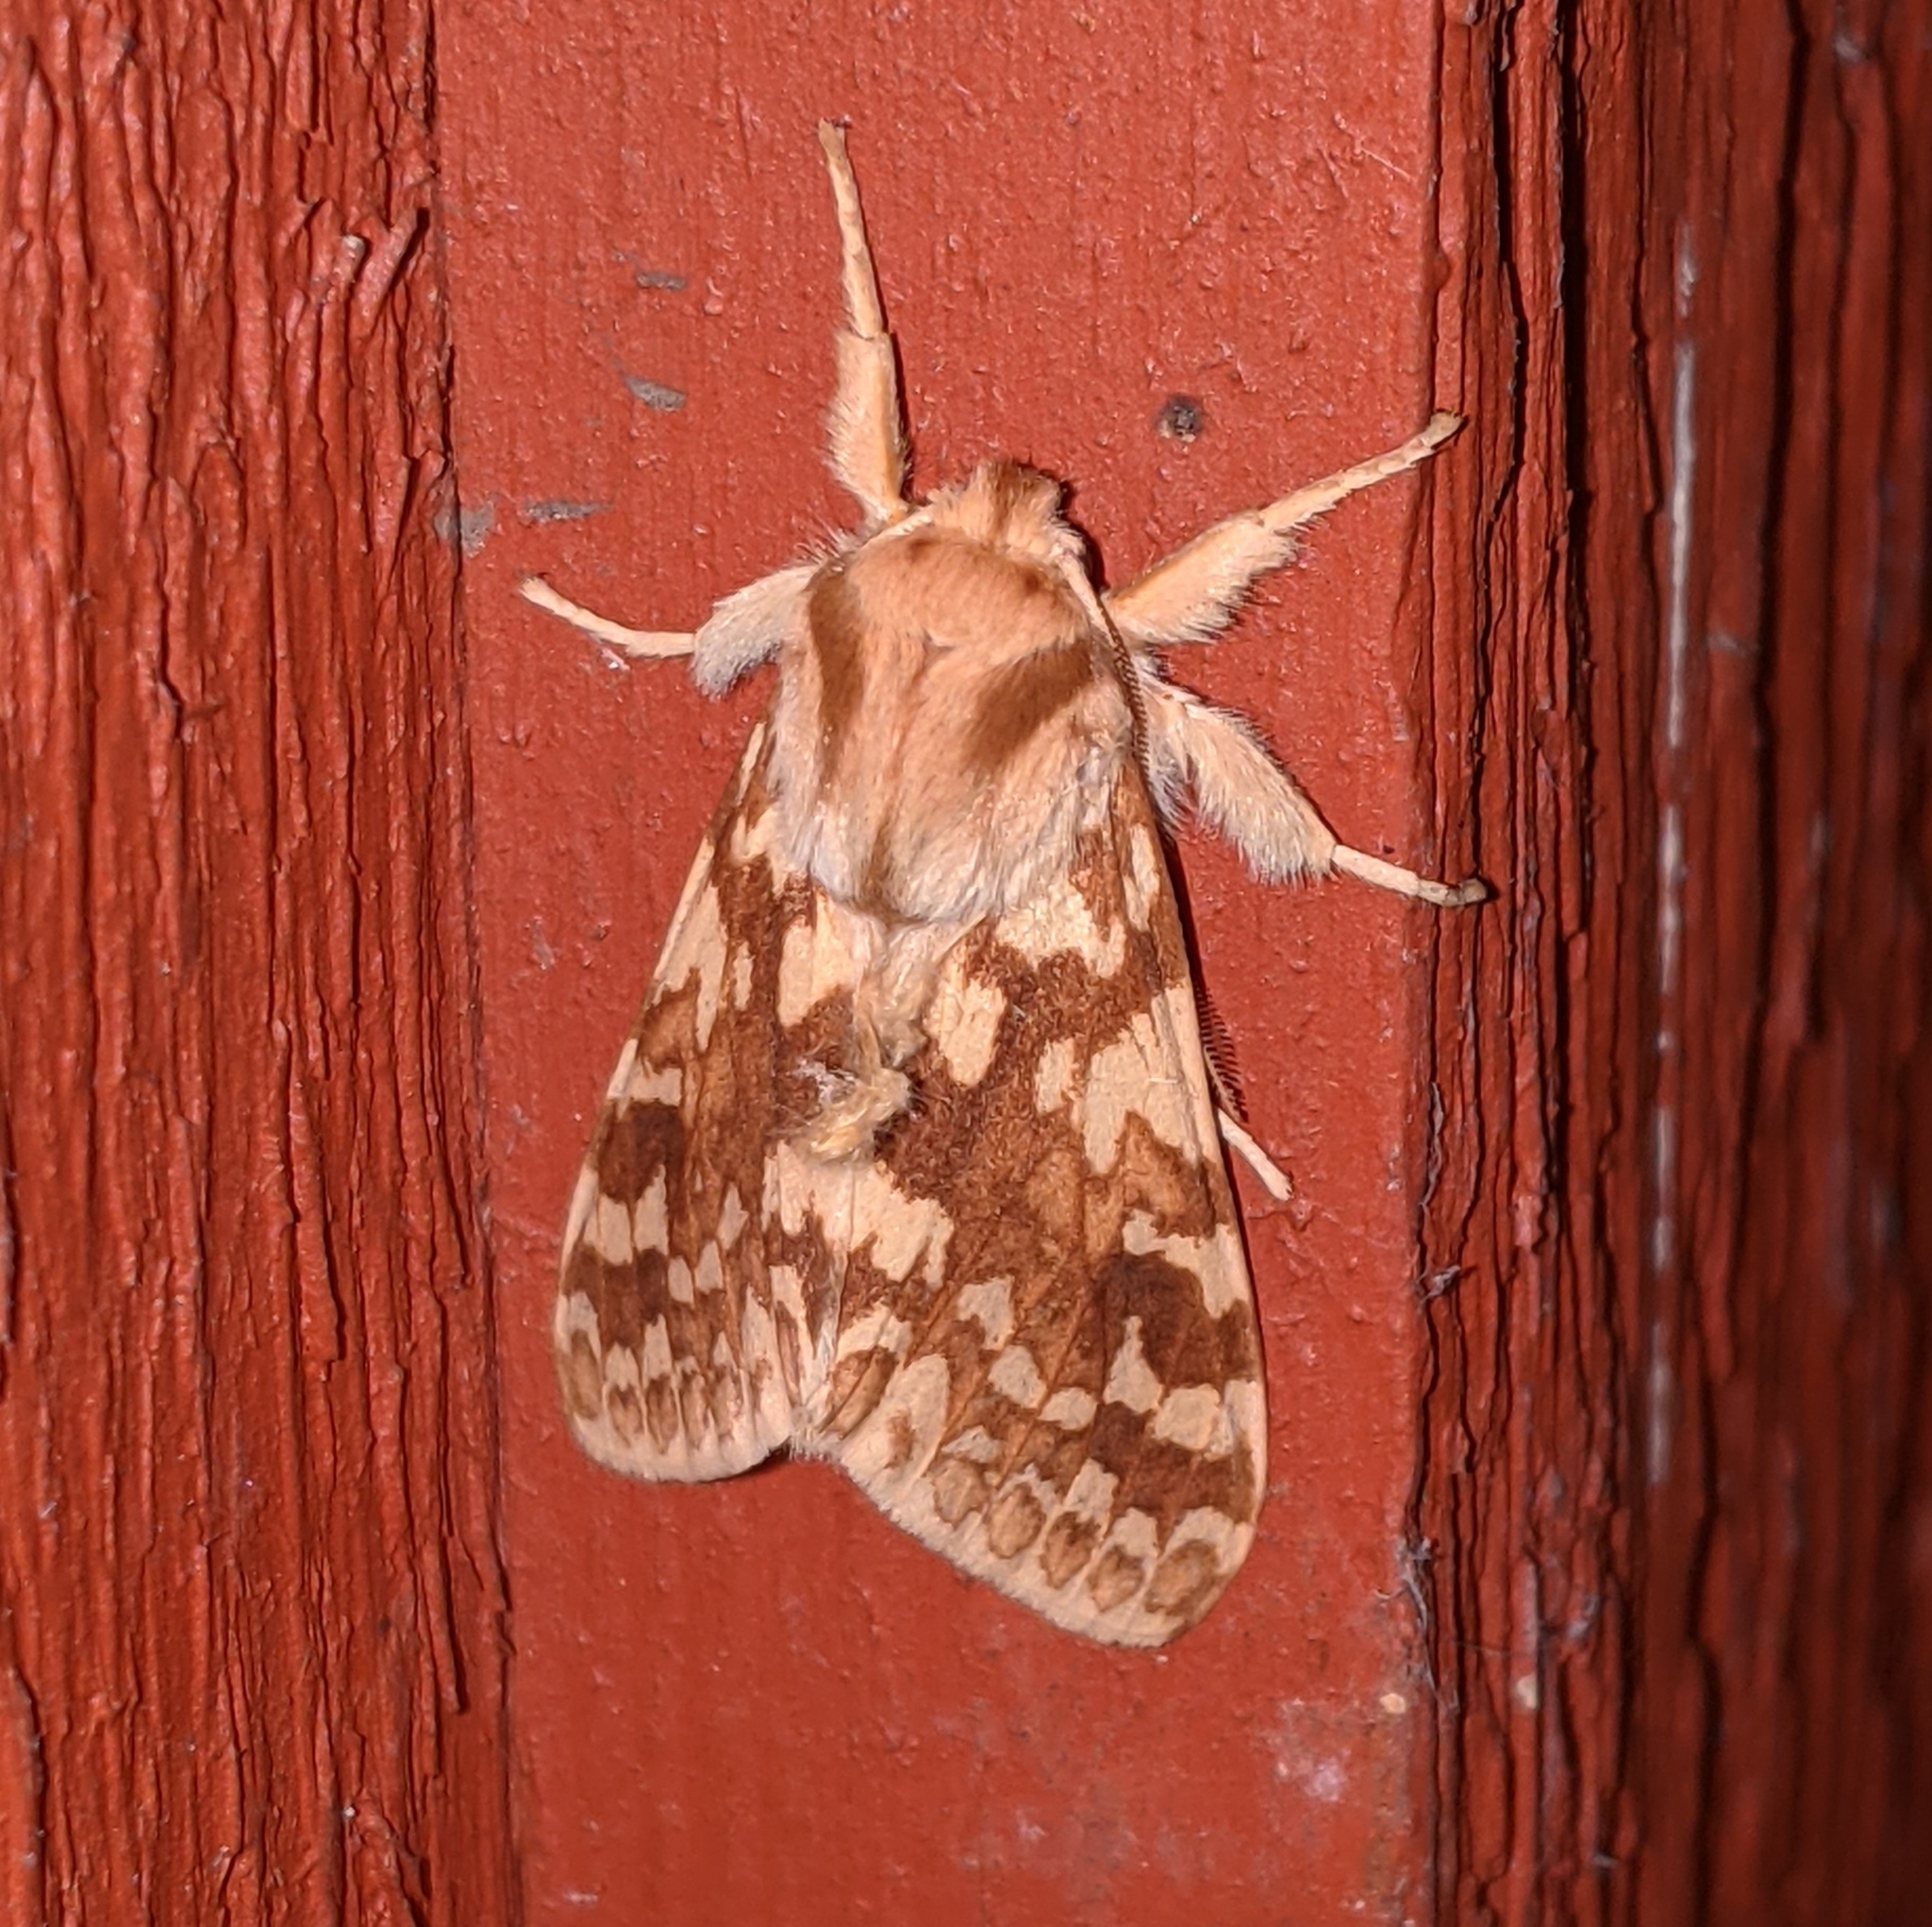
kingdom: Animalia
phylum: Arthropoda
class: Insecta
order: Lepidoptera
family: Erebidae
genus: Lophocampa
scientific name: Lophocampa maculata
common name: Spotted tussock moth
